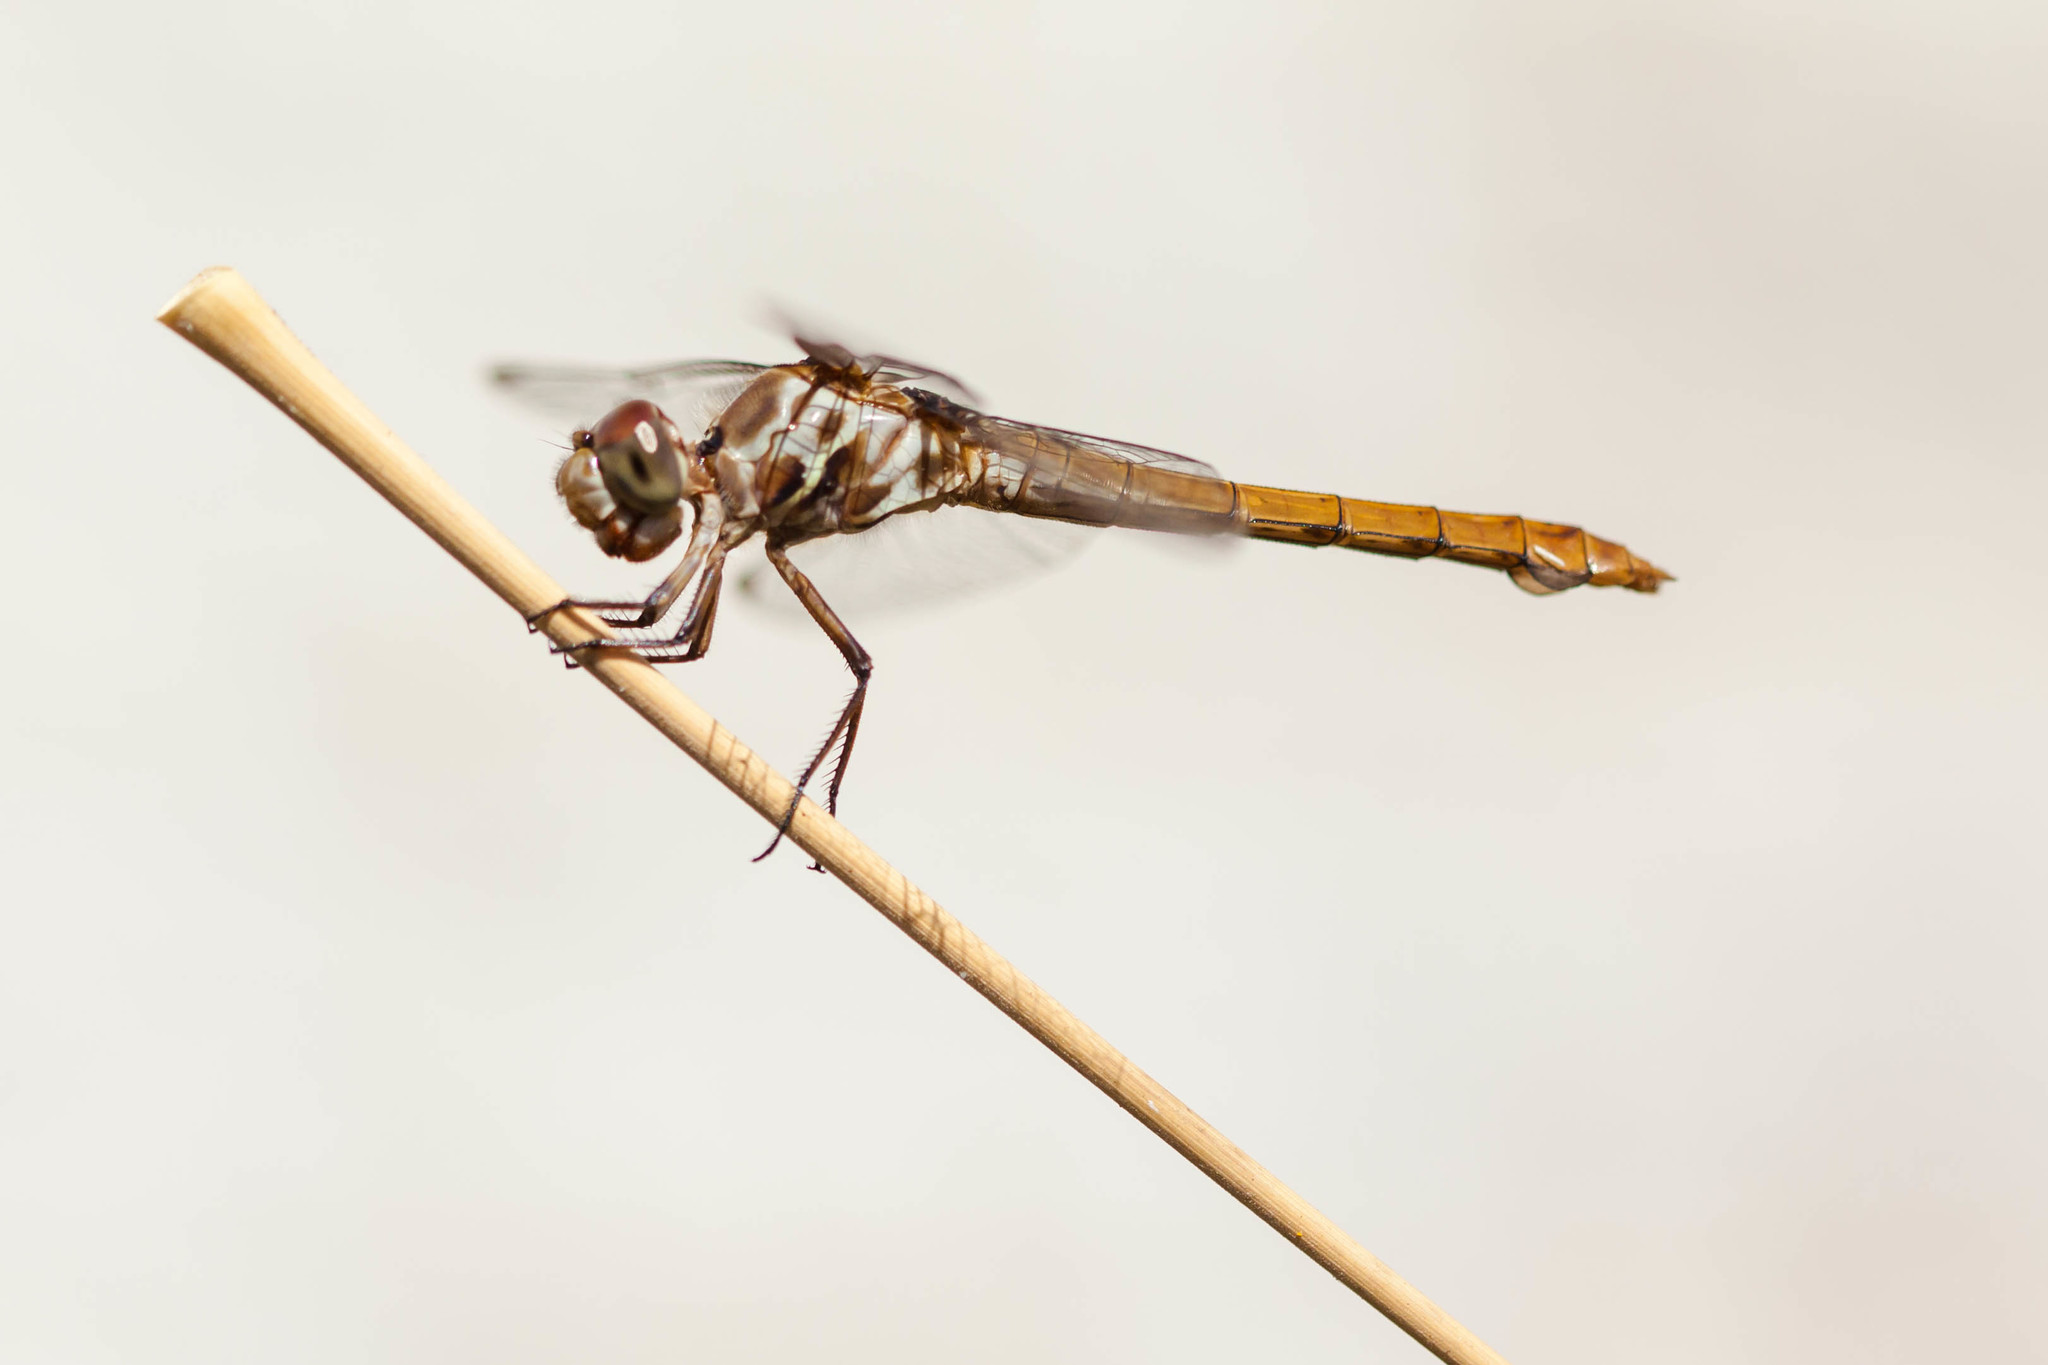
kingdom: Animalia
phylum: Arthropoda
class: Insecta
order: Odonata
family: Libellulidae
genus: Orthemis
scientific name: Orthemis ferruginea
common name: Roseate skimmer
